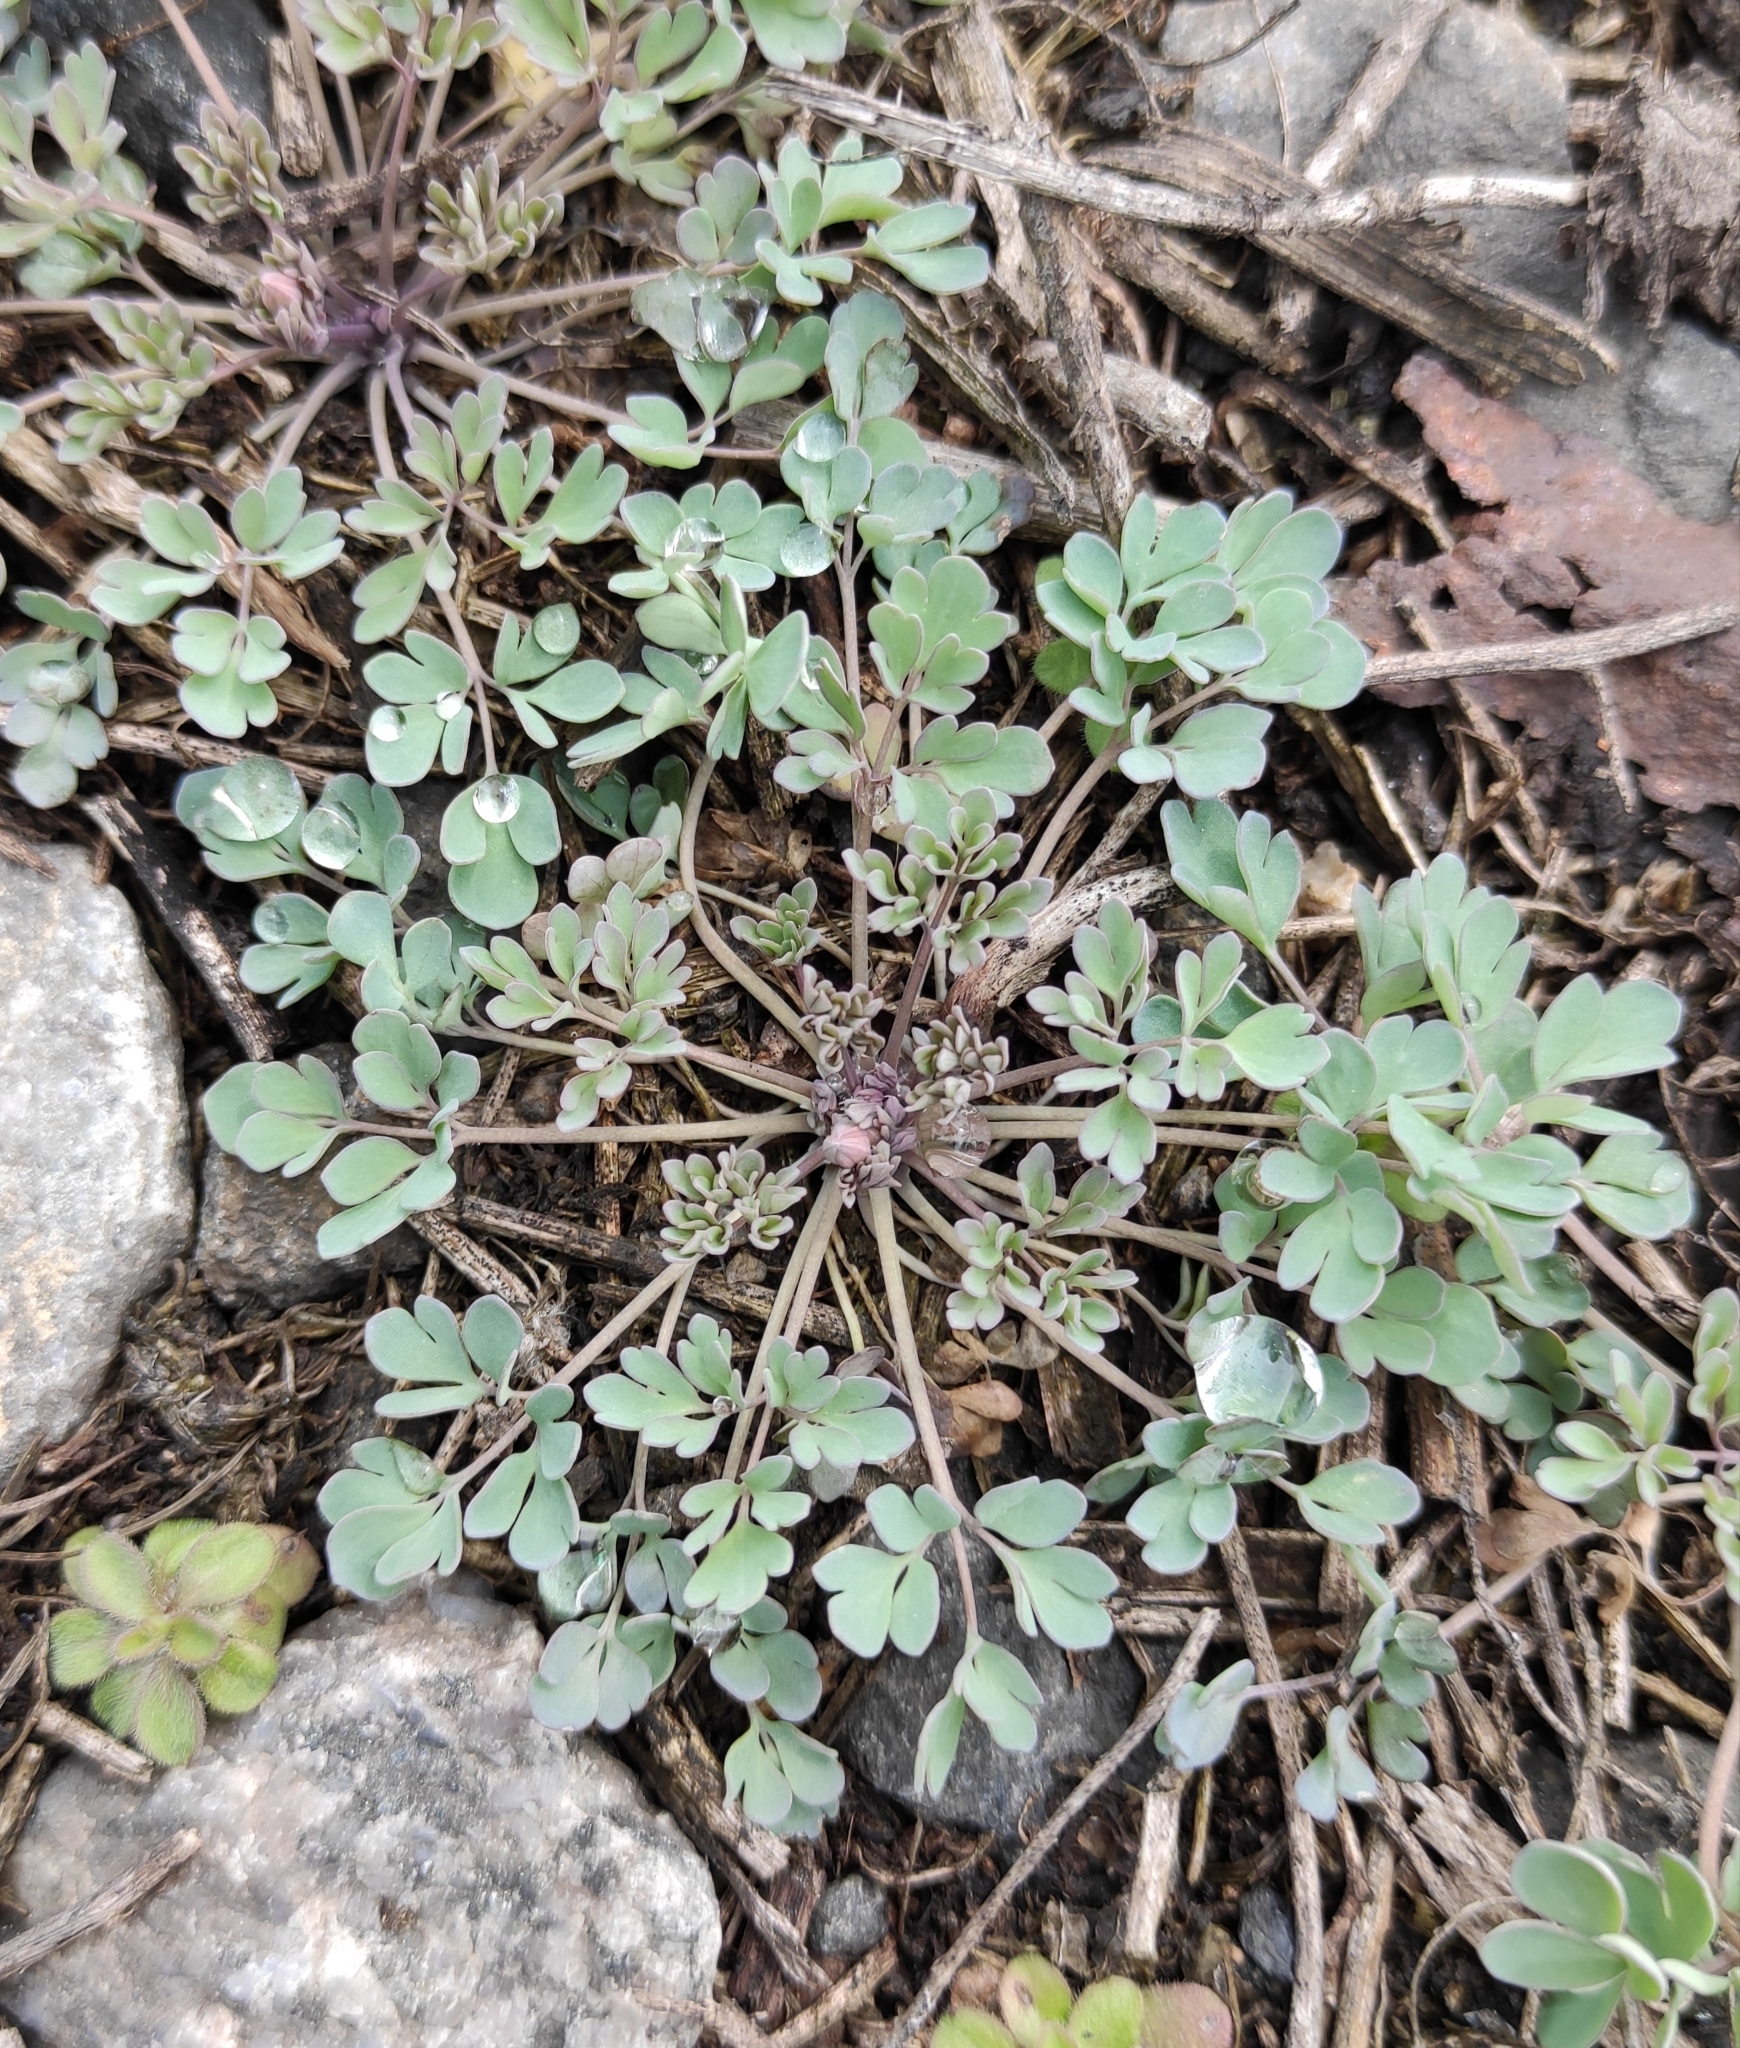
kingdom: Plantae
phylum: Tracheophyta
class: Magnoliopsida
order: Ranunculales
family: Ranunculaceae
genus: Leptopyrum
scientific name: Leptopyrum fumarioides
